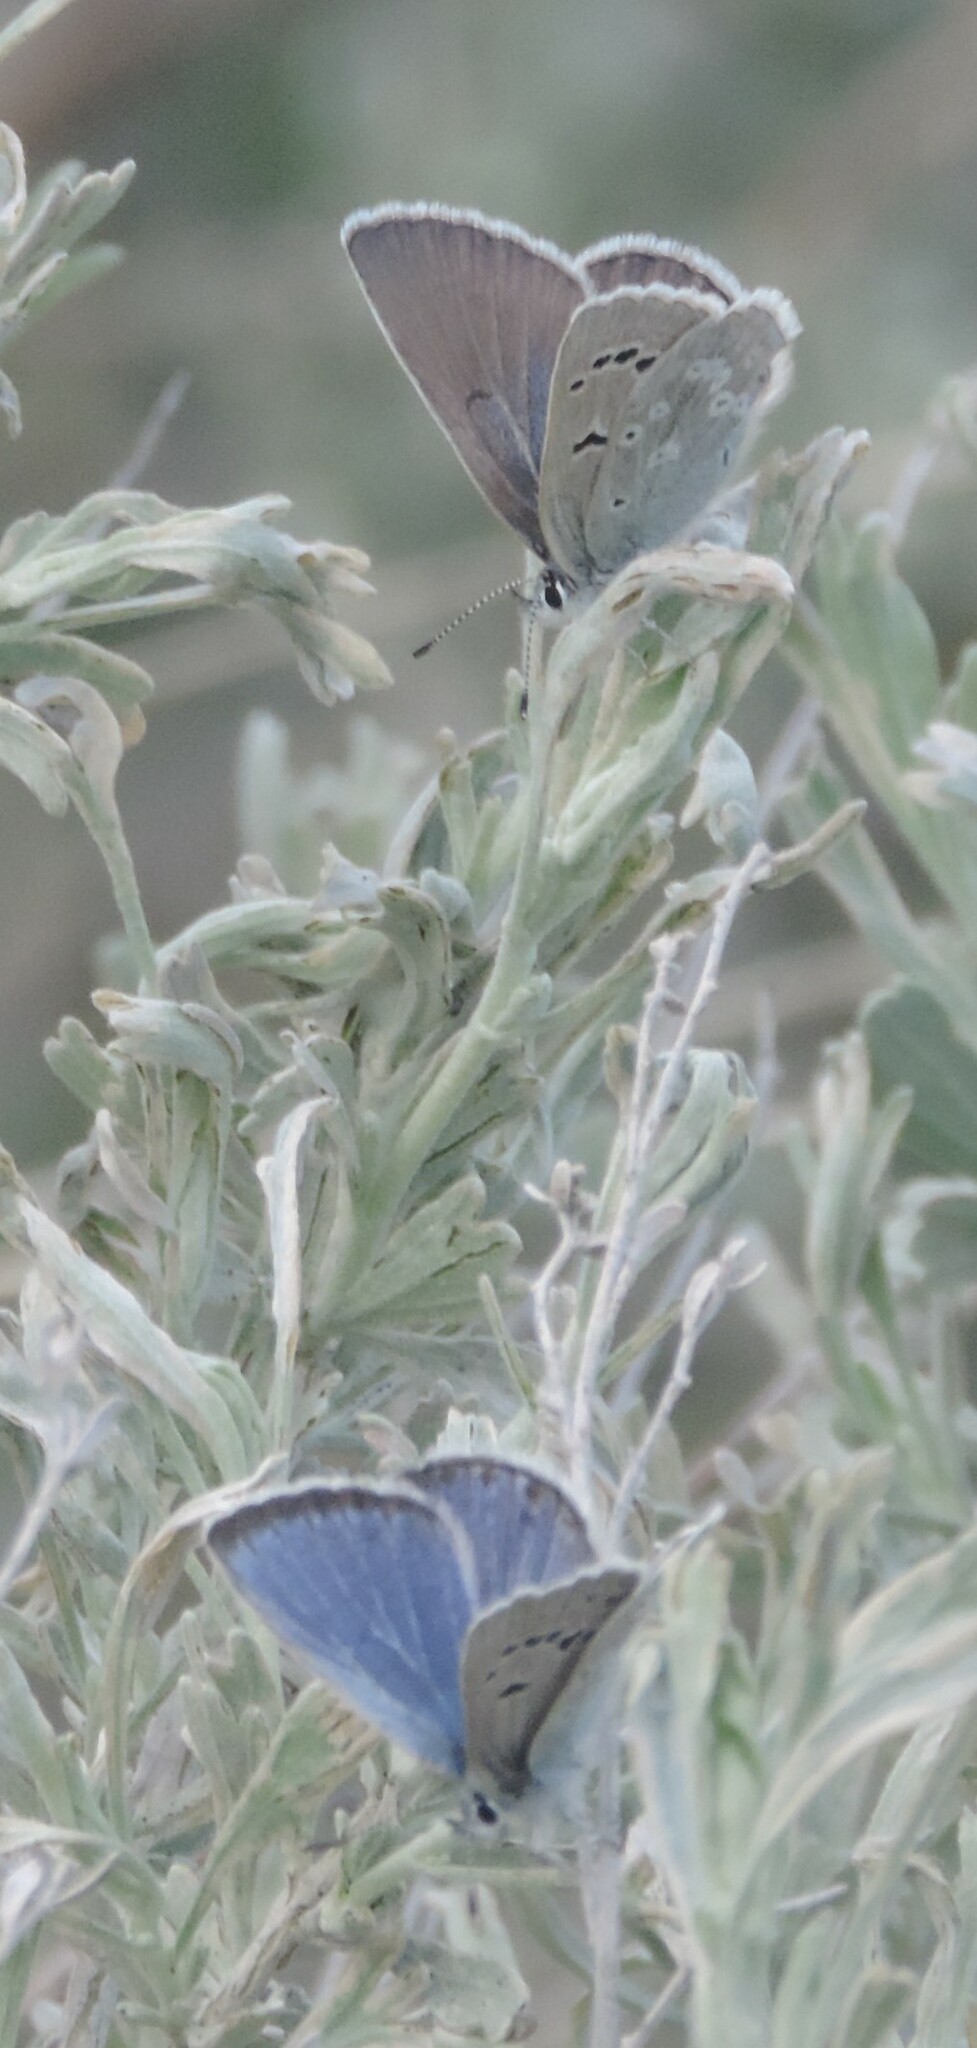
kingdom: Animalia
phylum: Arthropoda
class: Insecta
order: Lepidoptera
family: Lycaenidae
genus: Icaricia
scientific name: Icaricia icarioides
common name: Boisduval's blue
